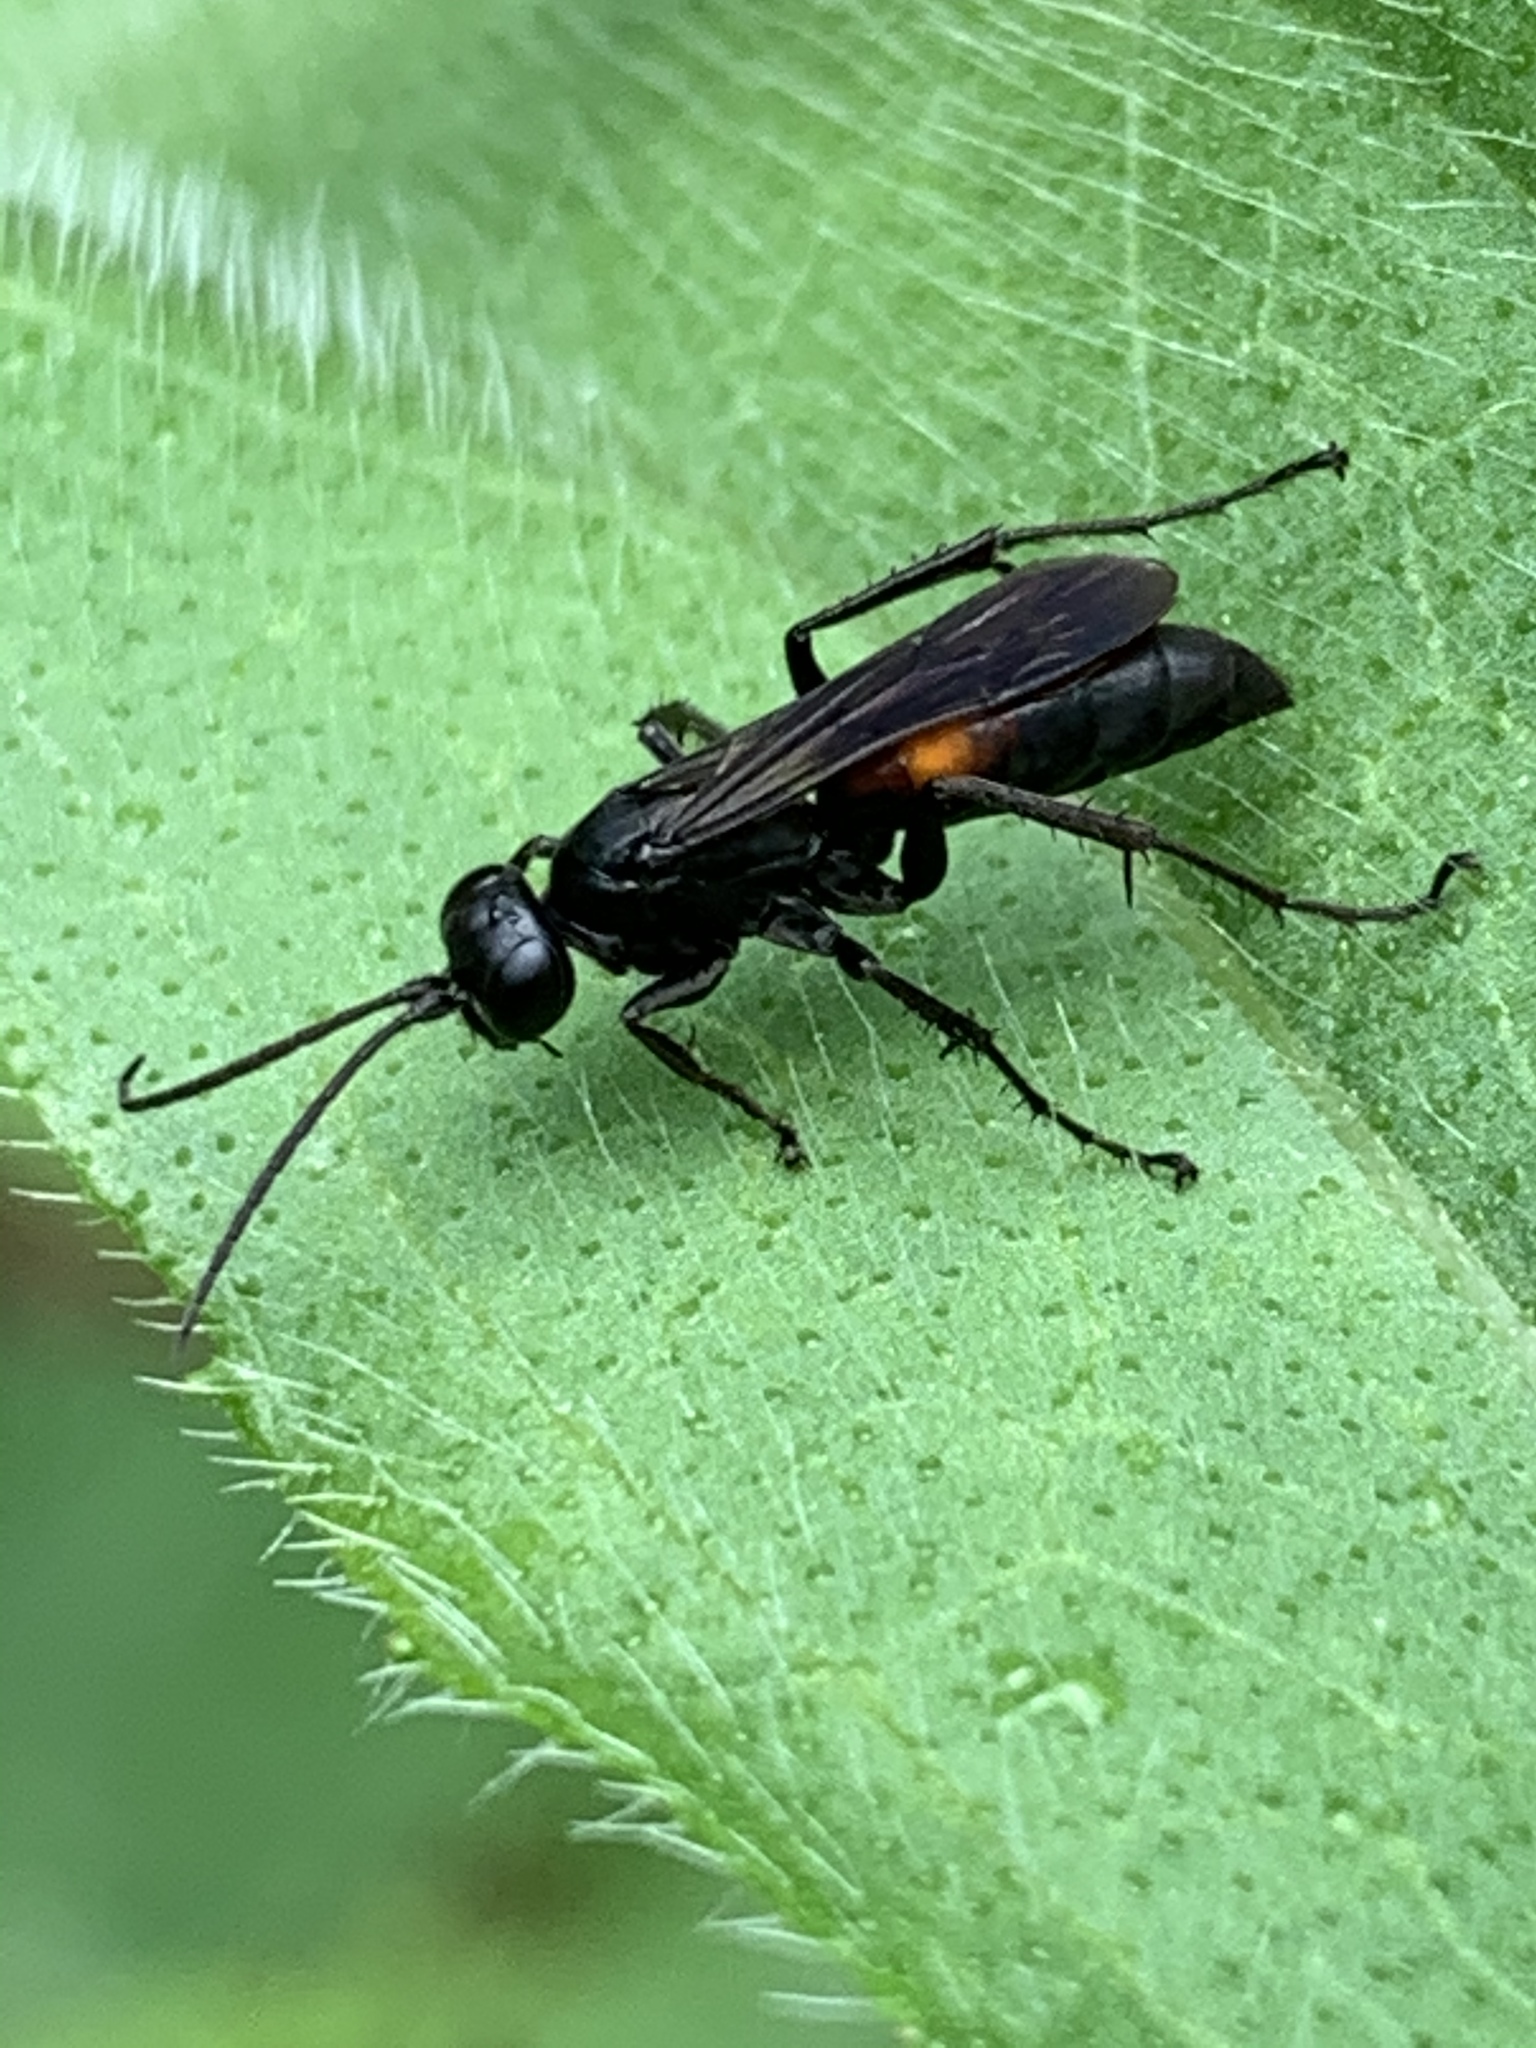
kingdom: Animalia
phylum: Arthropoda
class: Insecta
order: Hymenoptera
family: Pompilidae
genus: Anoplius
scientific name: Anoplius semicinctus
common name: Half-belted blue-black spider wasp
